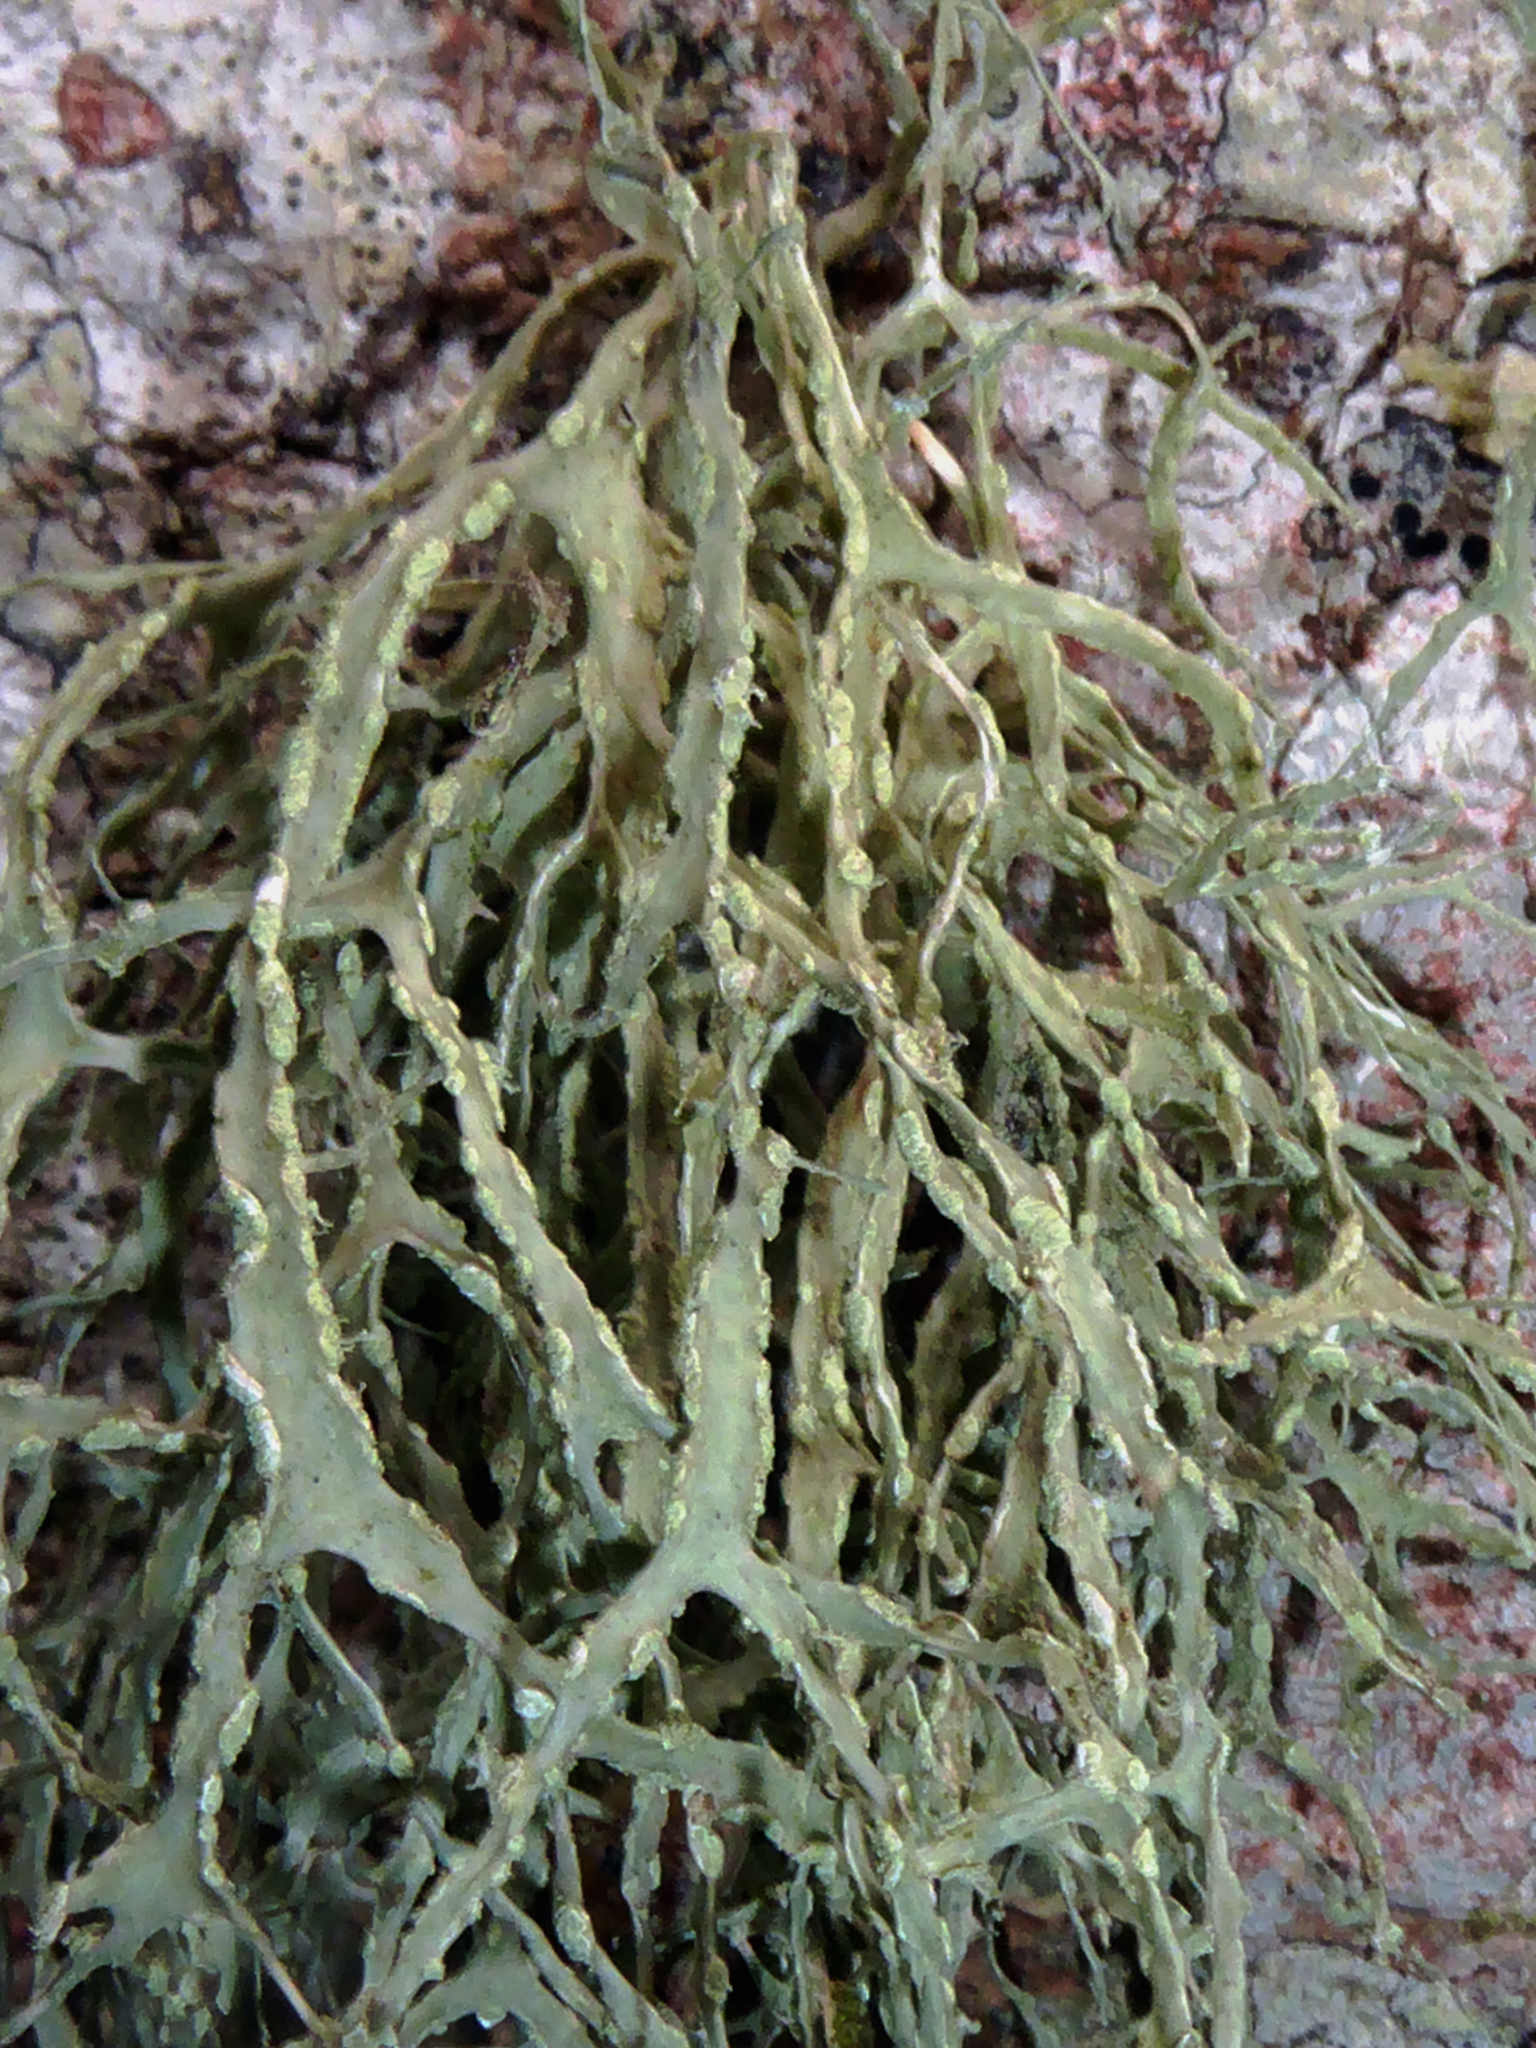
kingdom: Fungi
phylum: Ascomycota
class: Lecanoromycetes
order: Lecanorales
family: Ramalinaceae
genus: Ramalina
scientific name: Ramalina luciae
